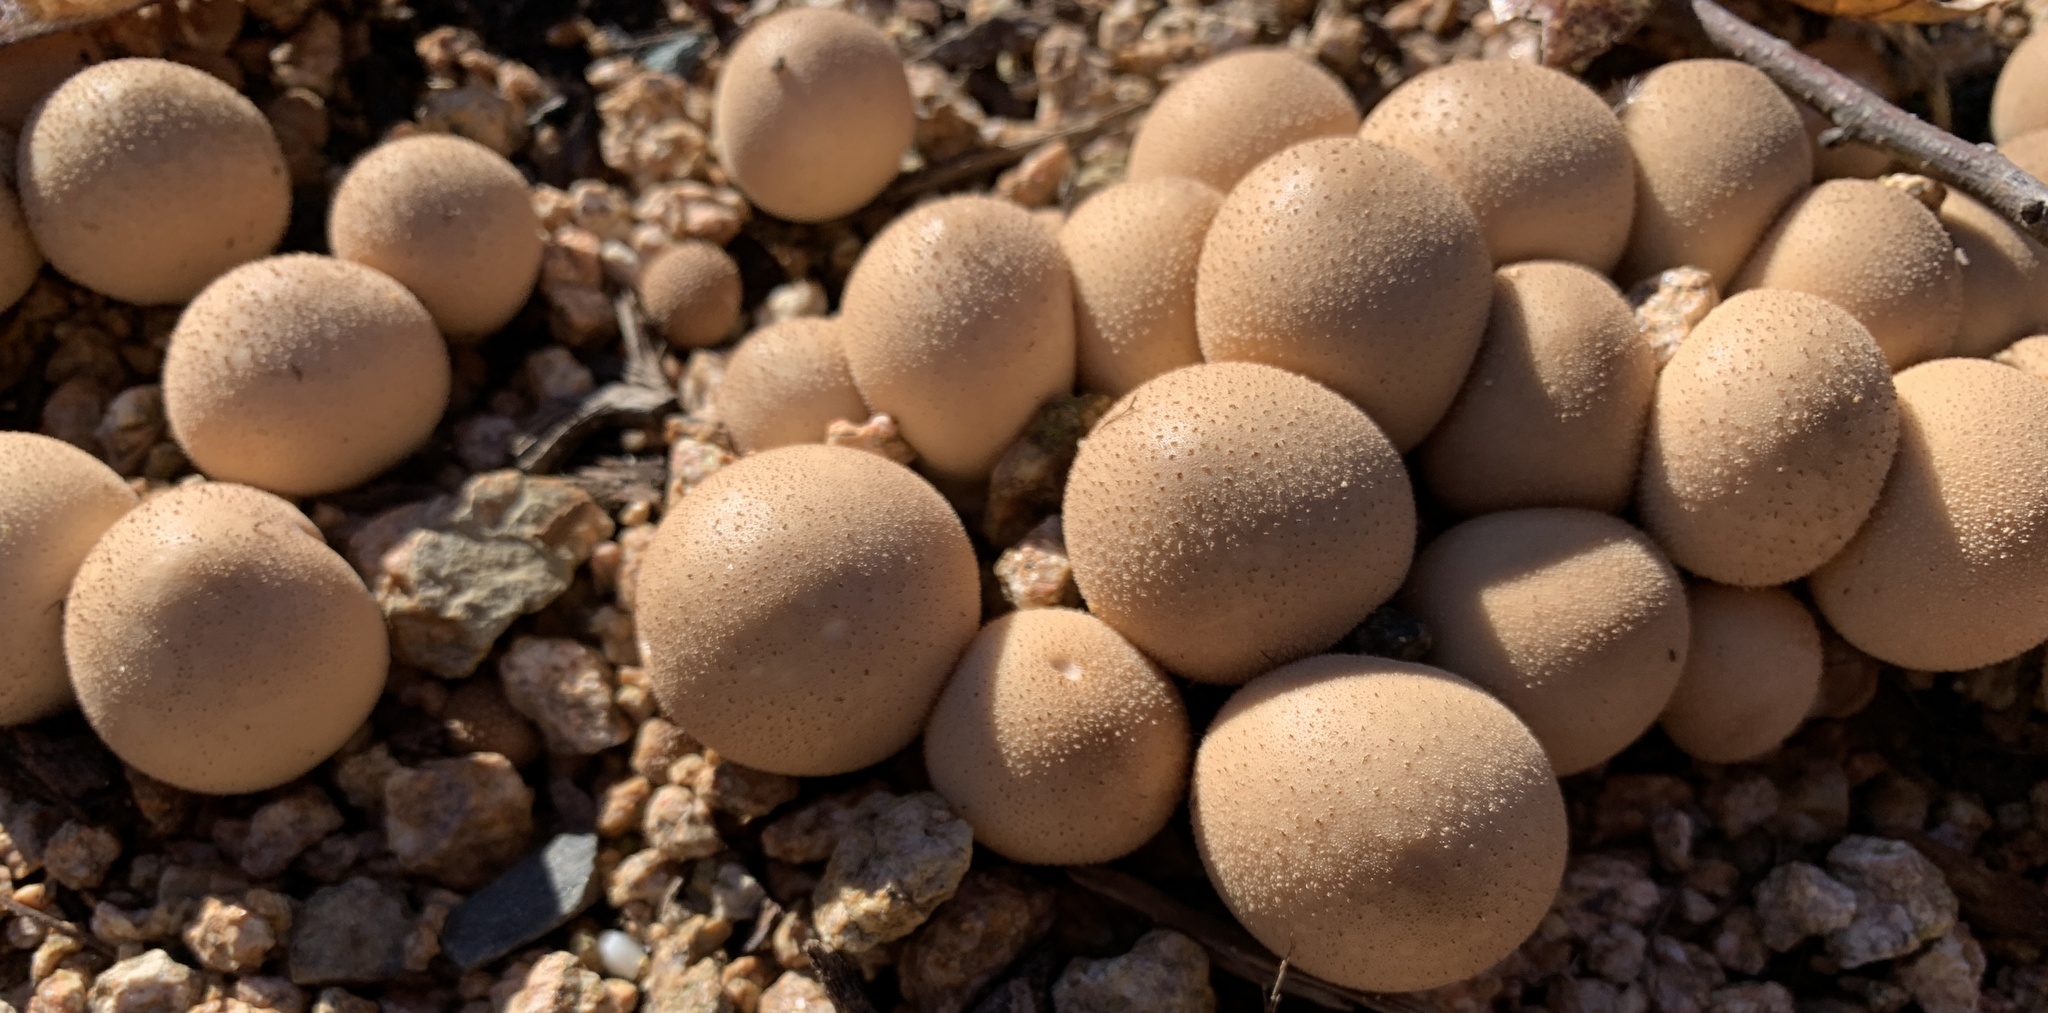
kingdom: Fungi
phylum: Basidiomycota
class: Agaricomycetes
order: Agaricales
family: Lycoperdaceae
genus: Apioperdon
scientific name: Apioperdon pyriforme
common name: Pear-shaped puffball
